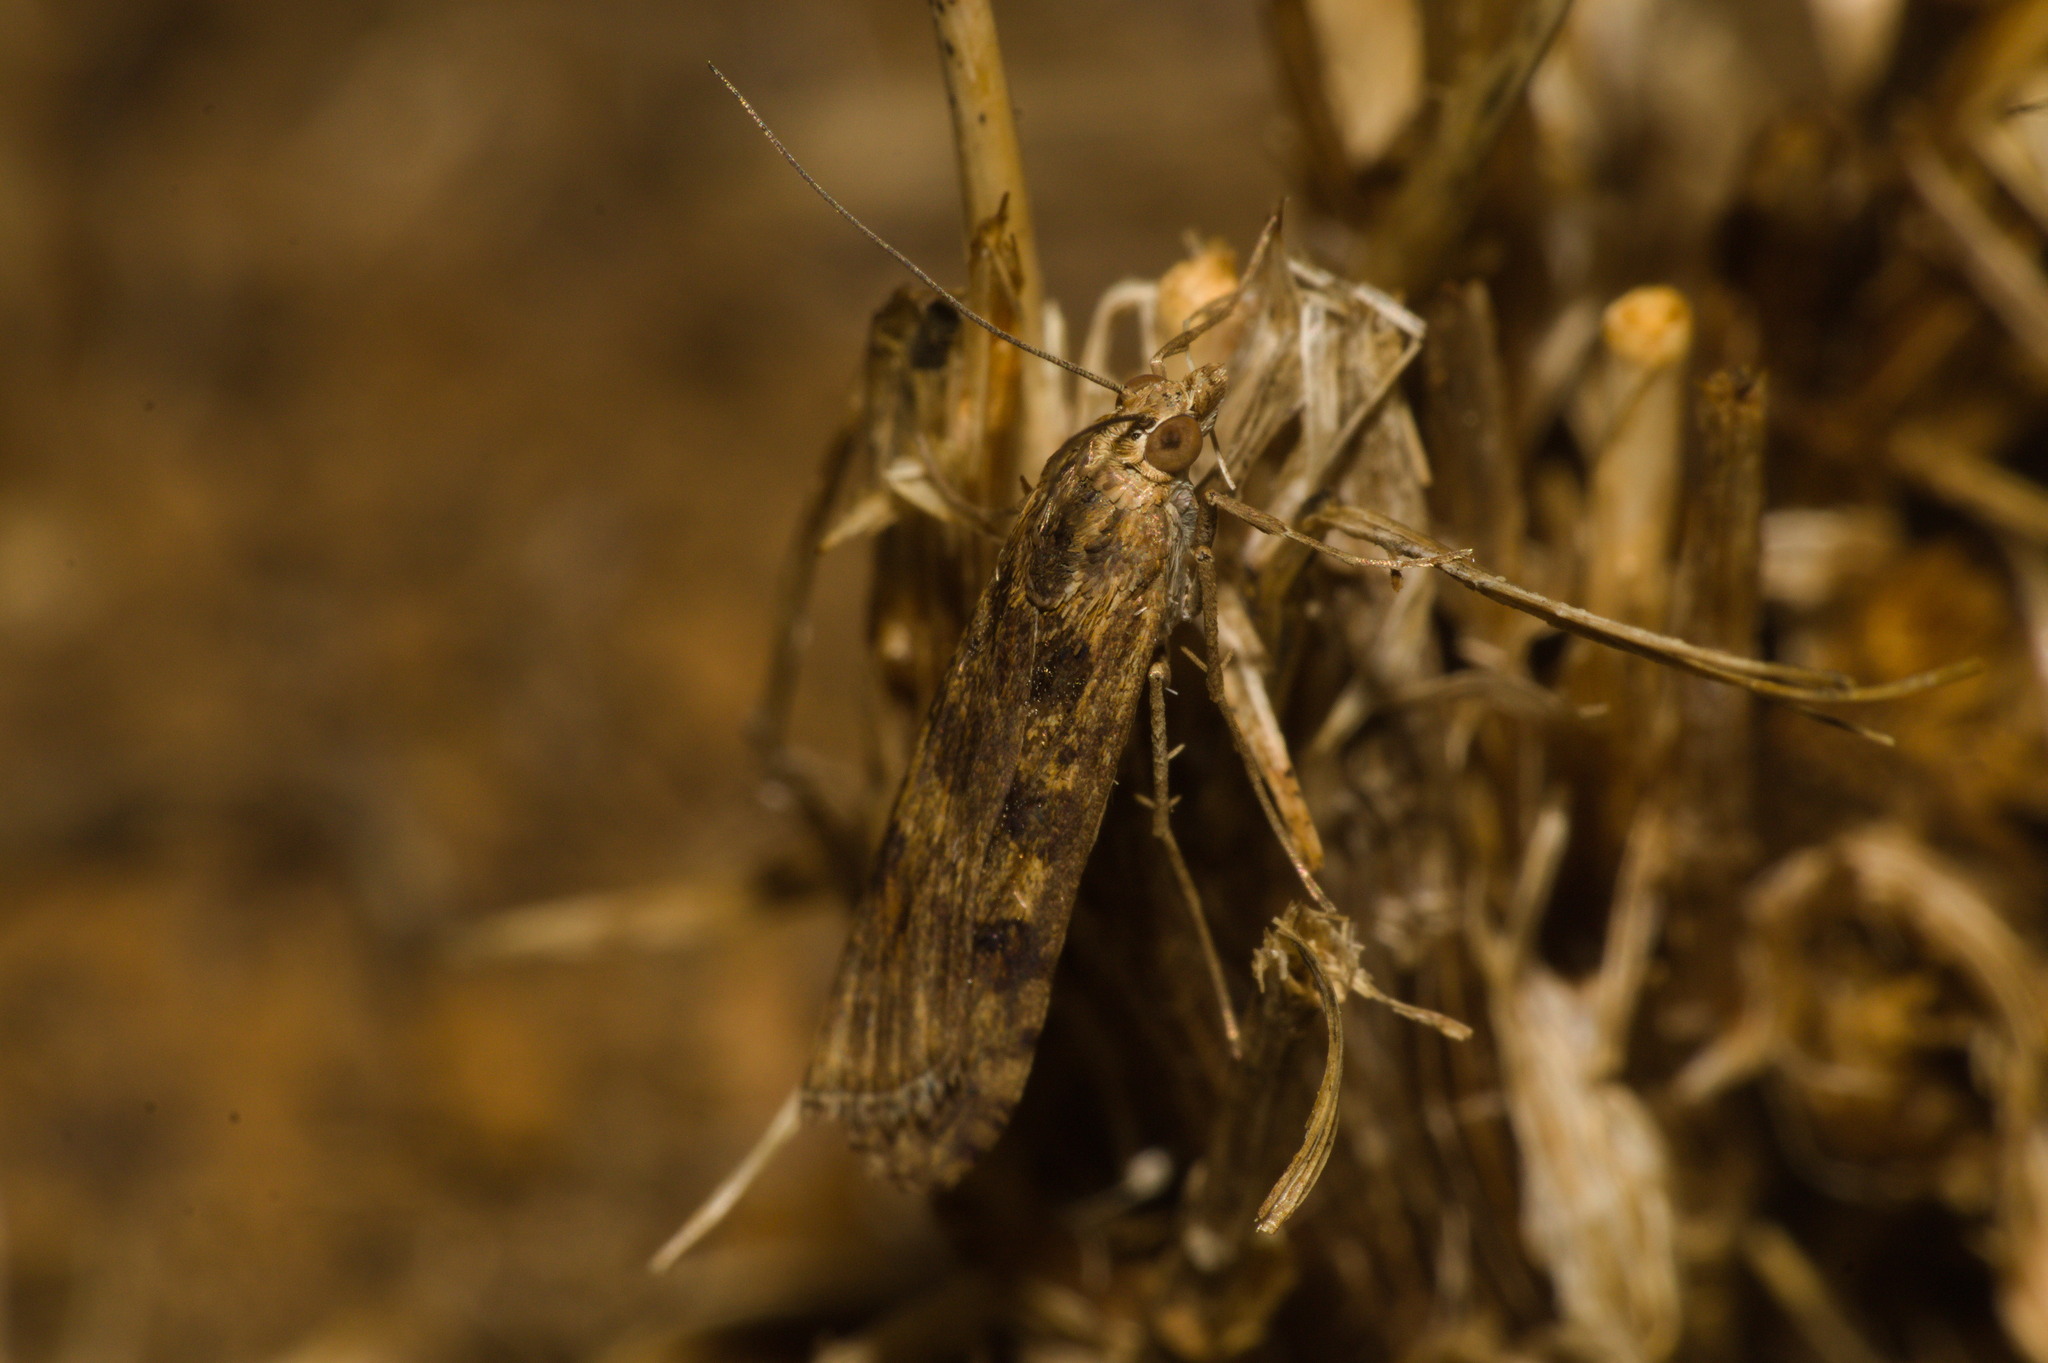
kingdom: Animalia
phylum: Arthropoda
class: Insecta
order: Lepidoptera
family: Crambidae
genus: Nomophila
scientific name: Nomophila noctuella
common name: Rush veneer
